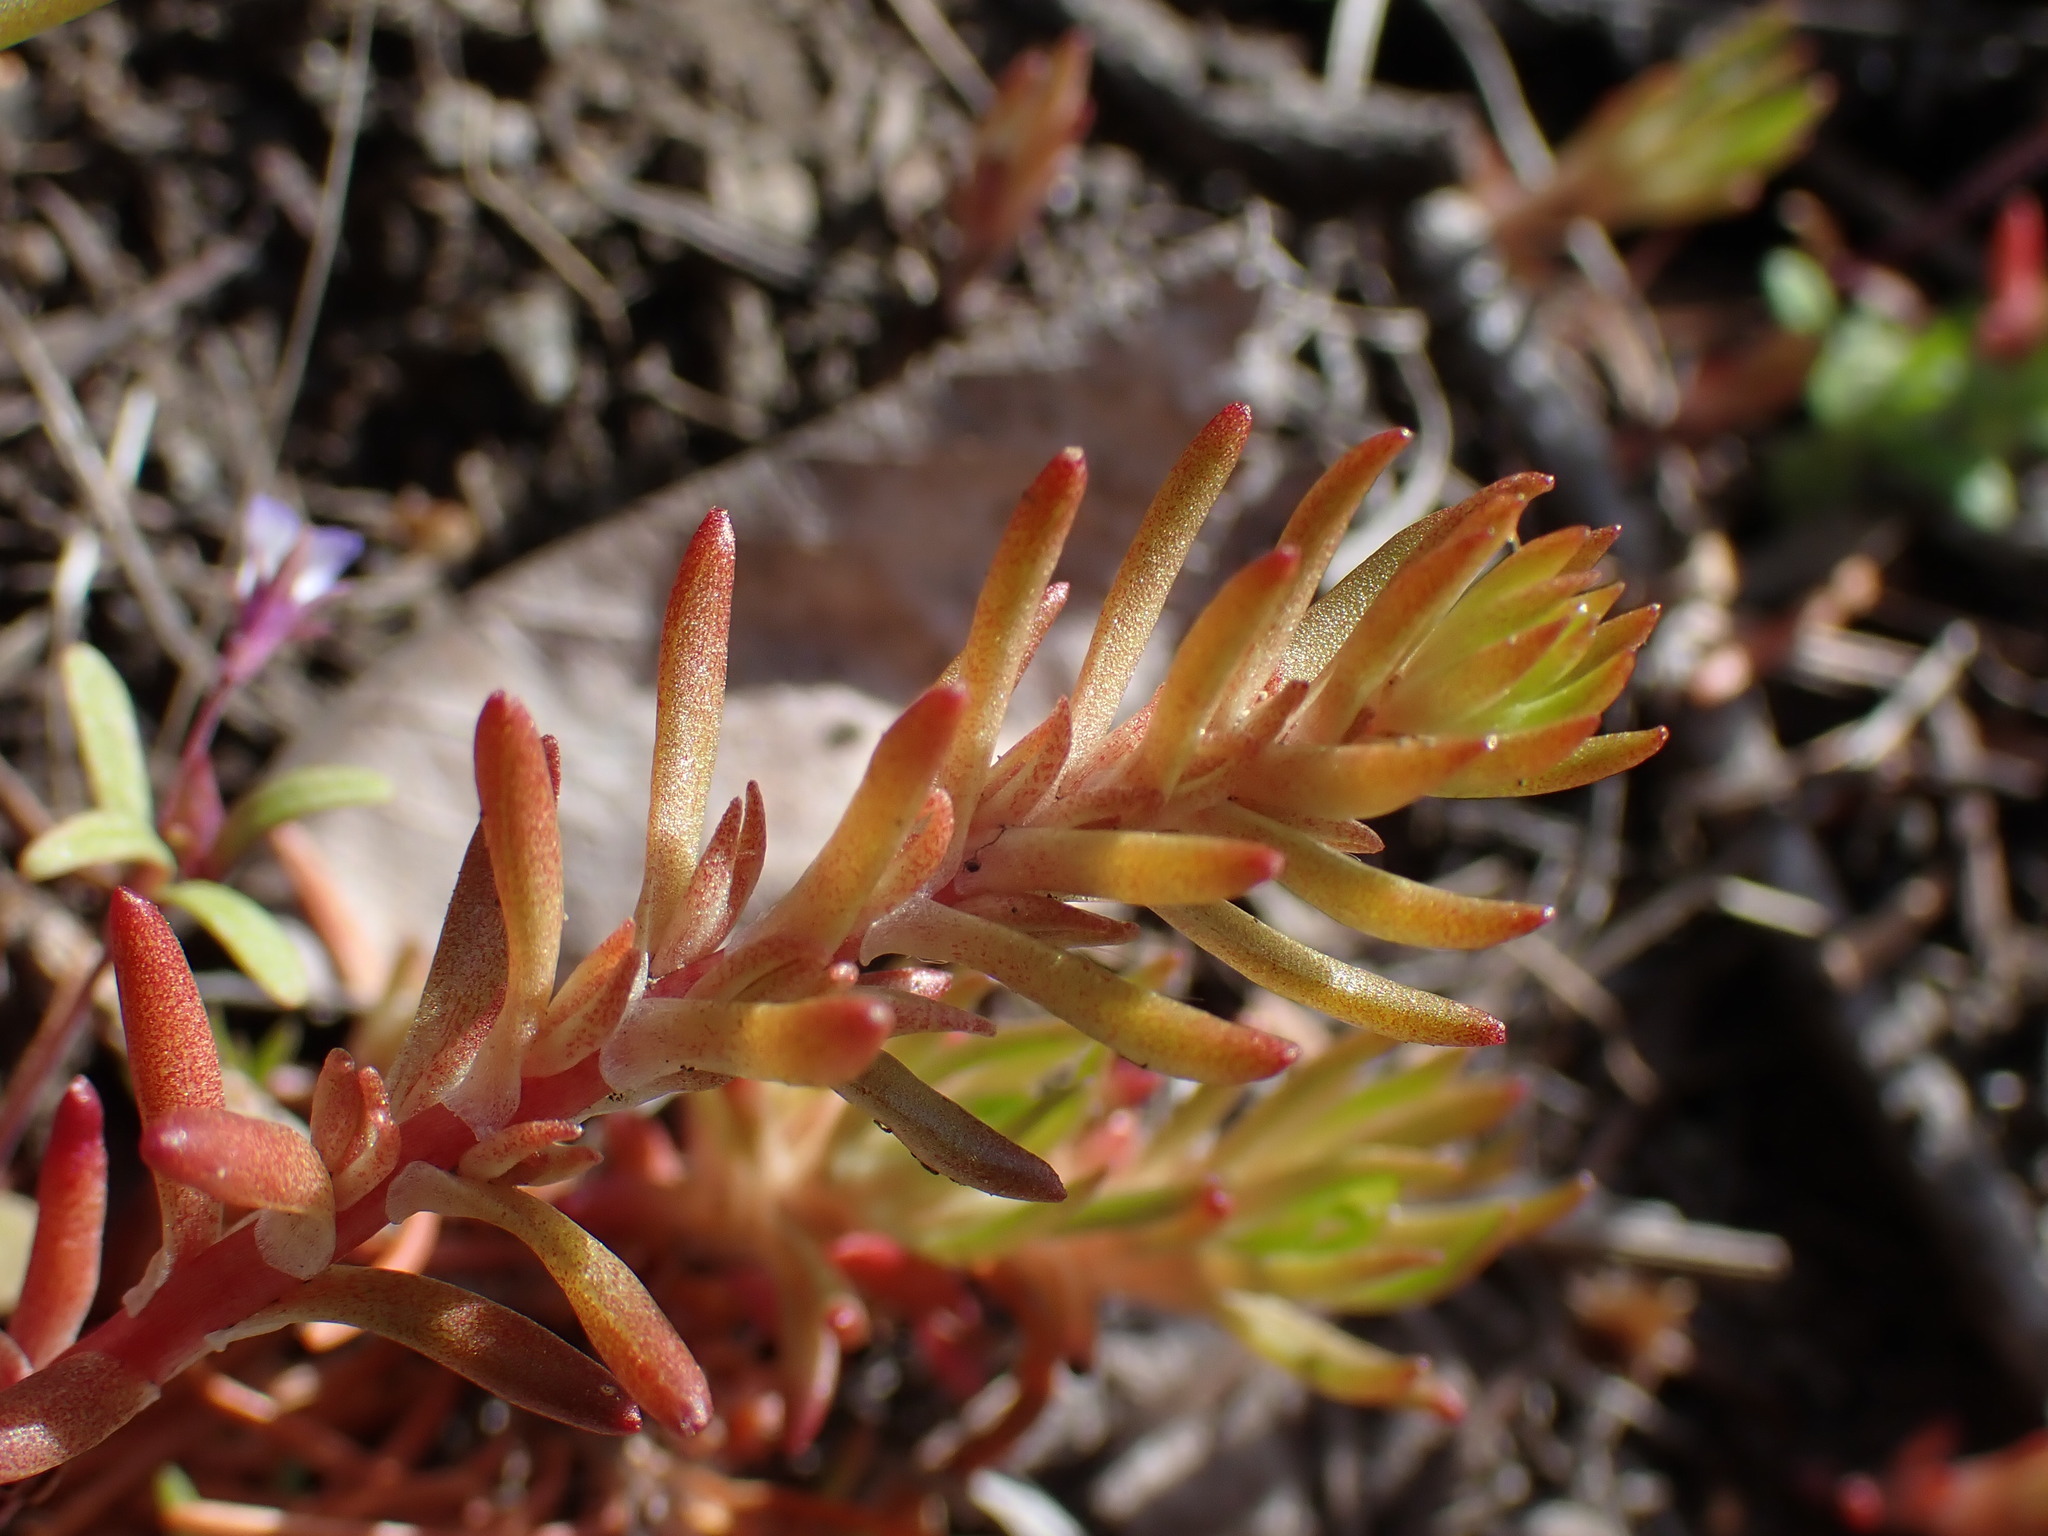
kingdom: Plantae
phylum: Tracheophyta
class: Magnoliopsida
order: Saxifragales
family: Crassulaceae
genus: Sedum
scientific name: Sedum stenopetalum
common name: Narrow-petaled stonecrop
